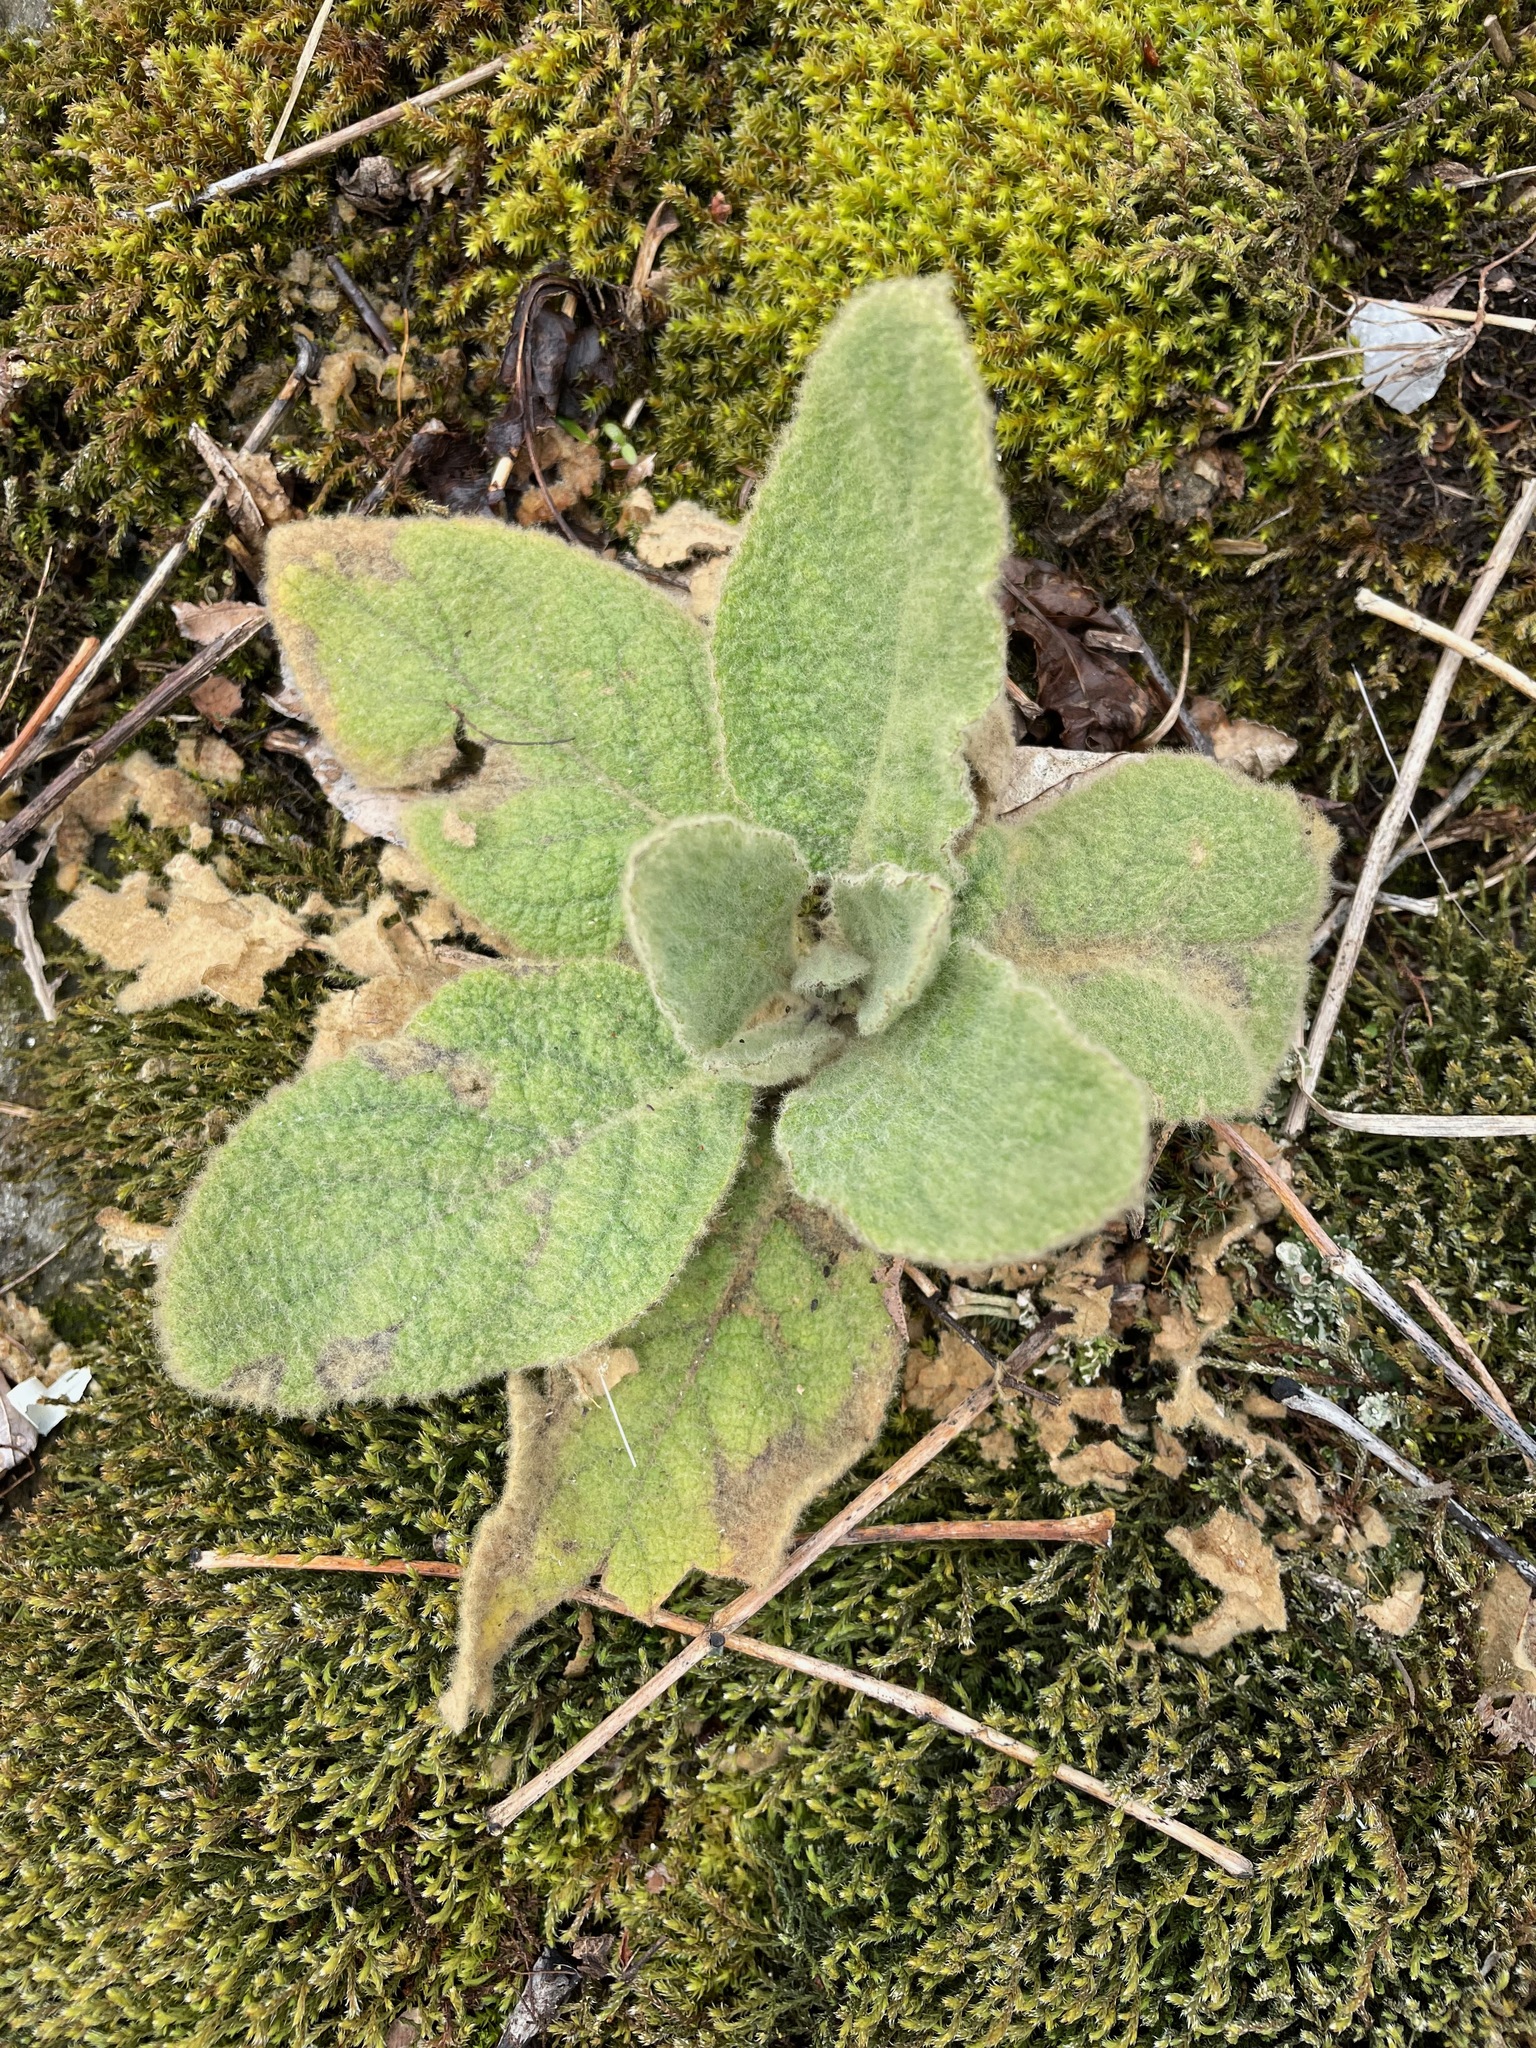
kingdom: Plantae
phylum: Tracheophyta
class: Magnoliopsida
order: Lamiales
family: Scrophulariaceae
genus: Verbascum
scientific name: Verbascum thapsus
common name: Common mullein
